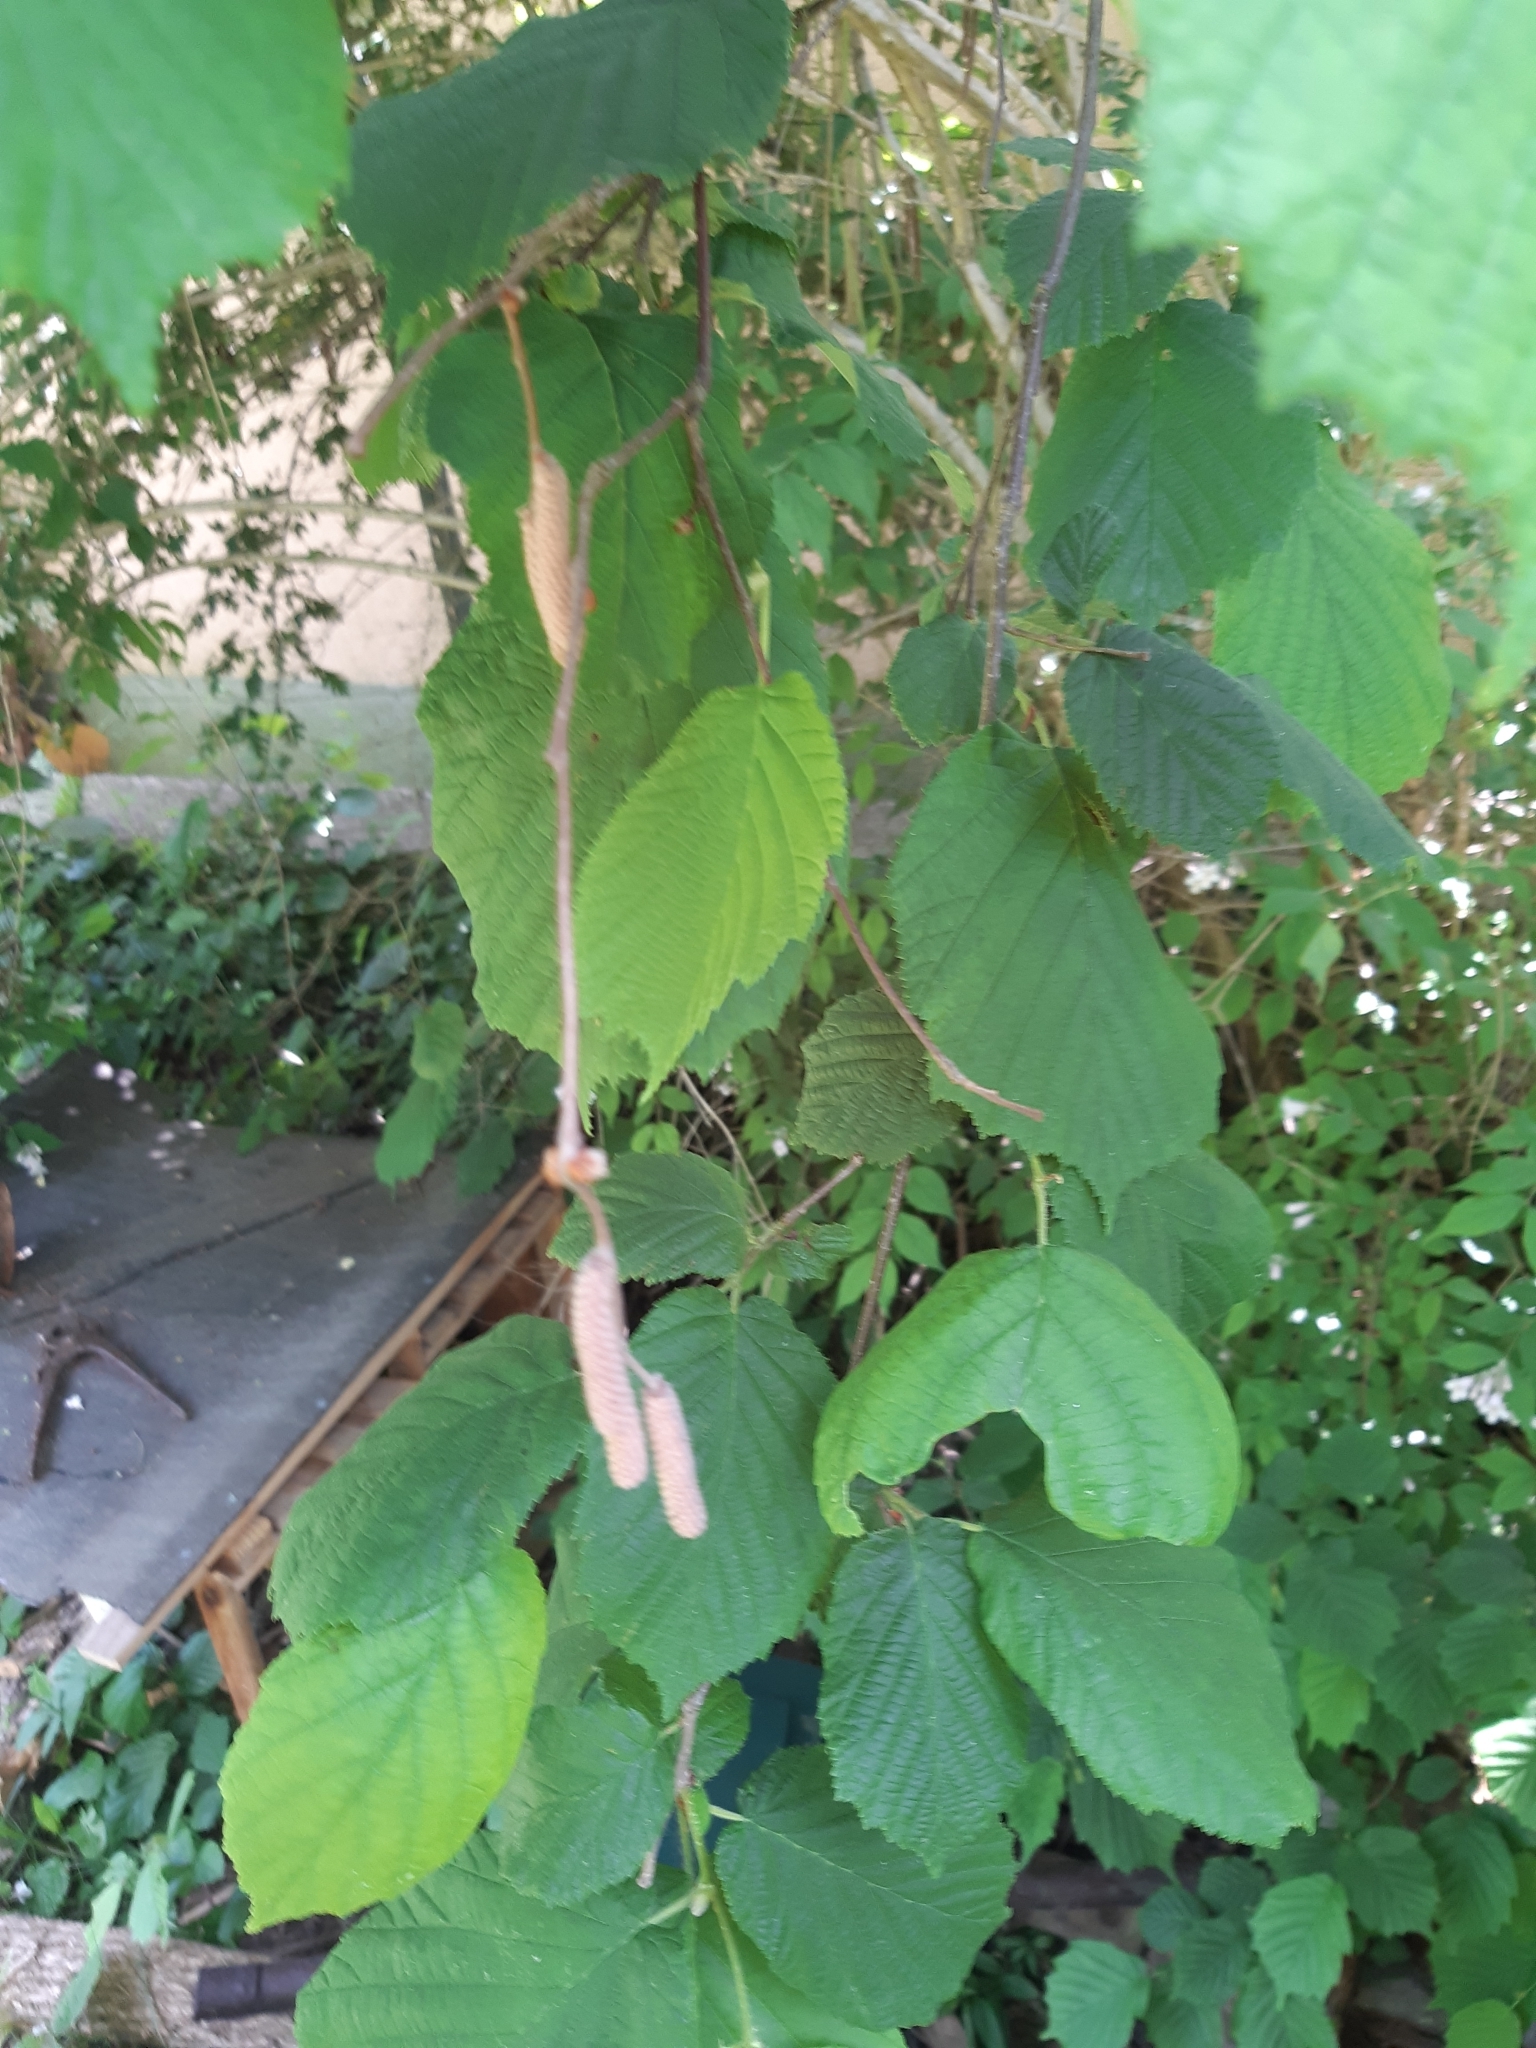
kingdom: Plantae
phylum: Tracheophyta
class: Magnoliopsida
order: Fagales
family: Betulaceae
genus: Corylus
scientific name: Corylus avellana
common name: European hazel
